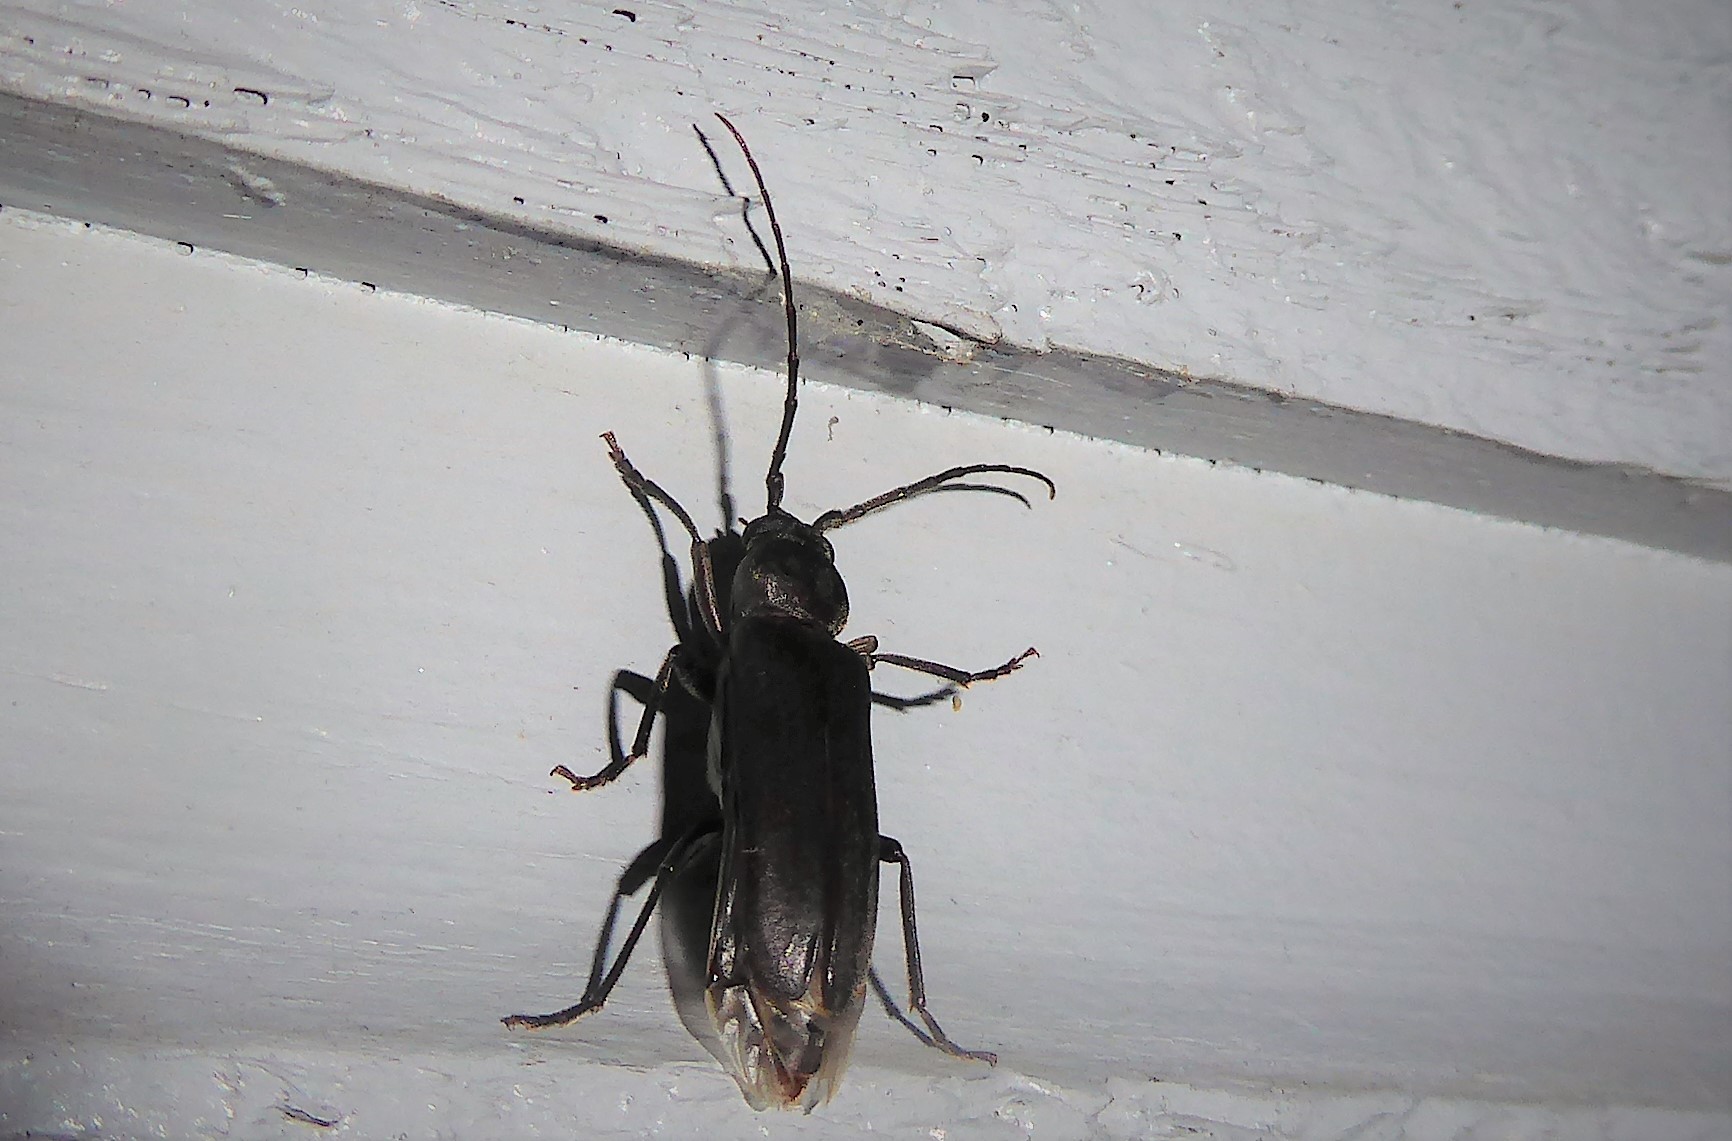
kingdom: Animalia
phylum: Arthropoda
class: Insecta
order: Coleoptera
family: Cerambycidae
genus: Arhopalus
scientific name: Arhopalus ferus
